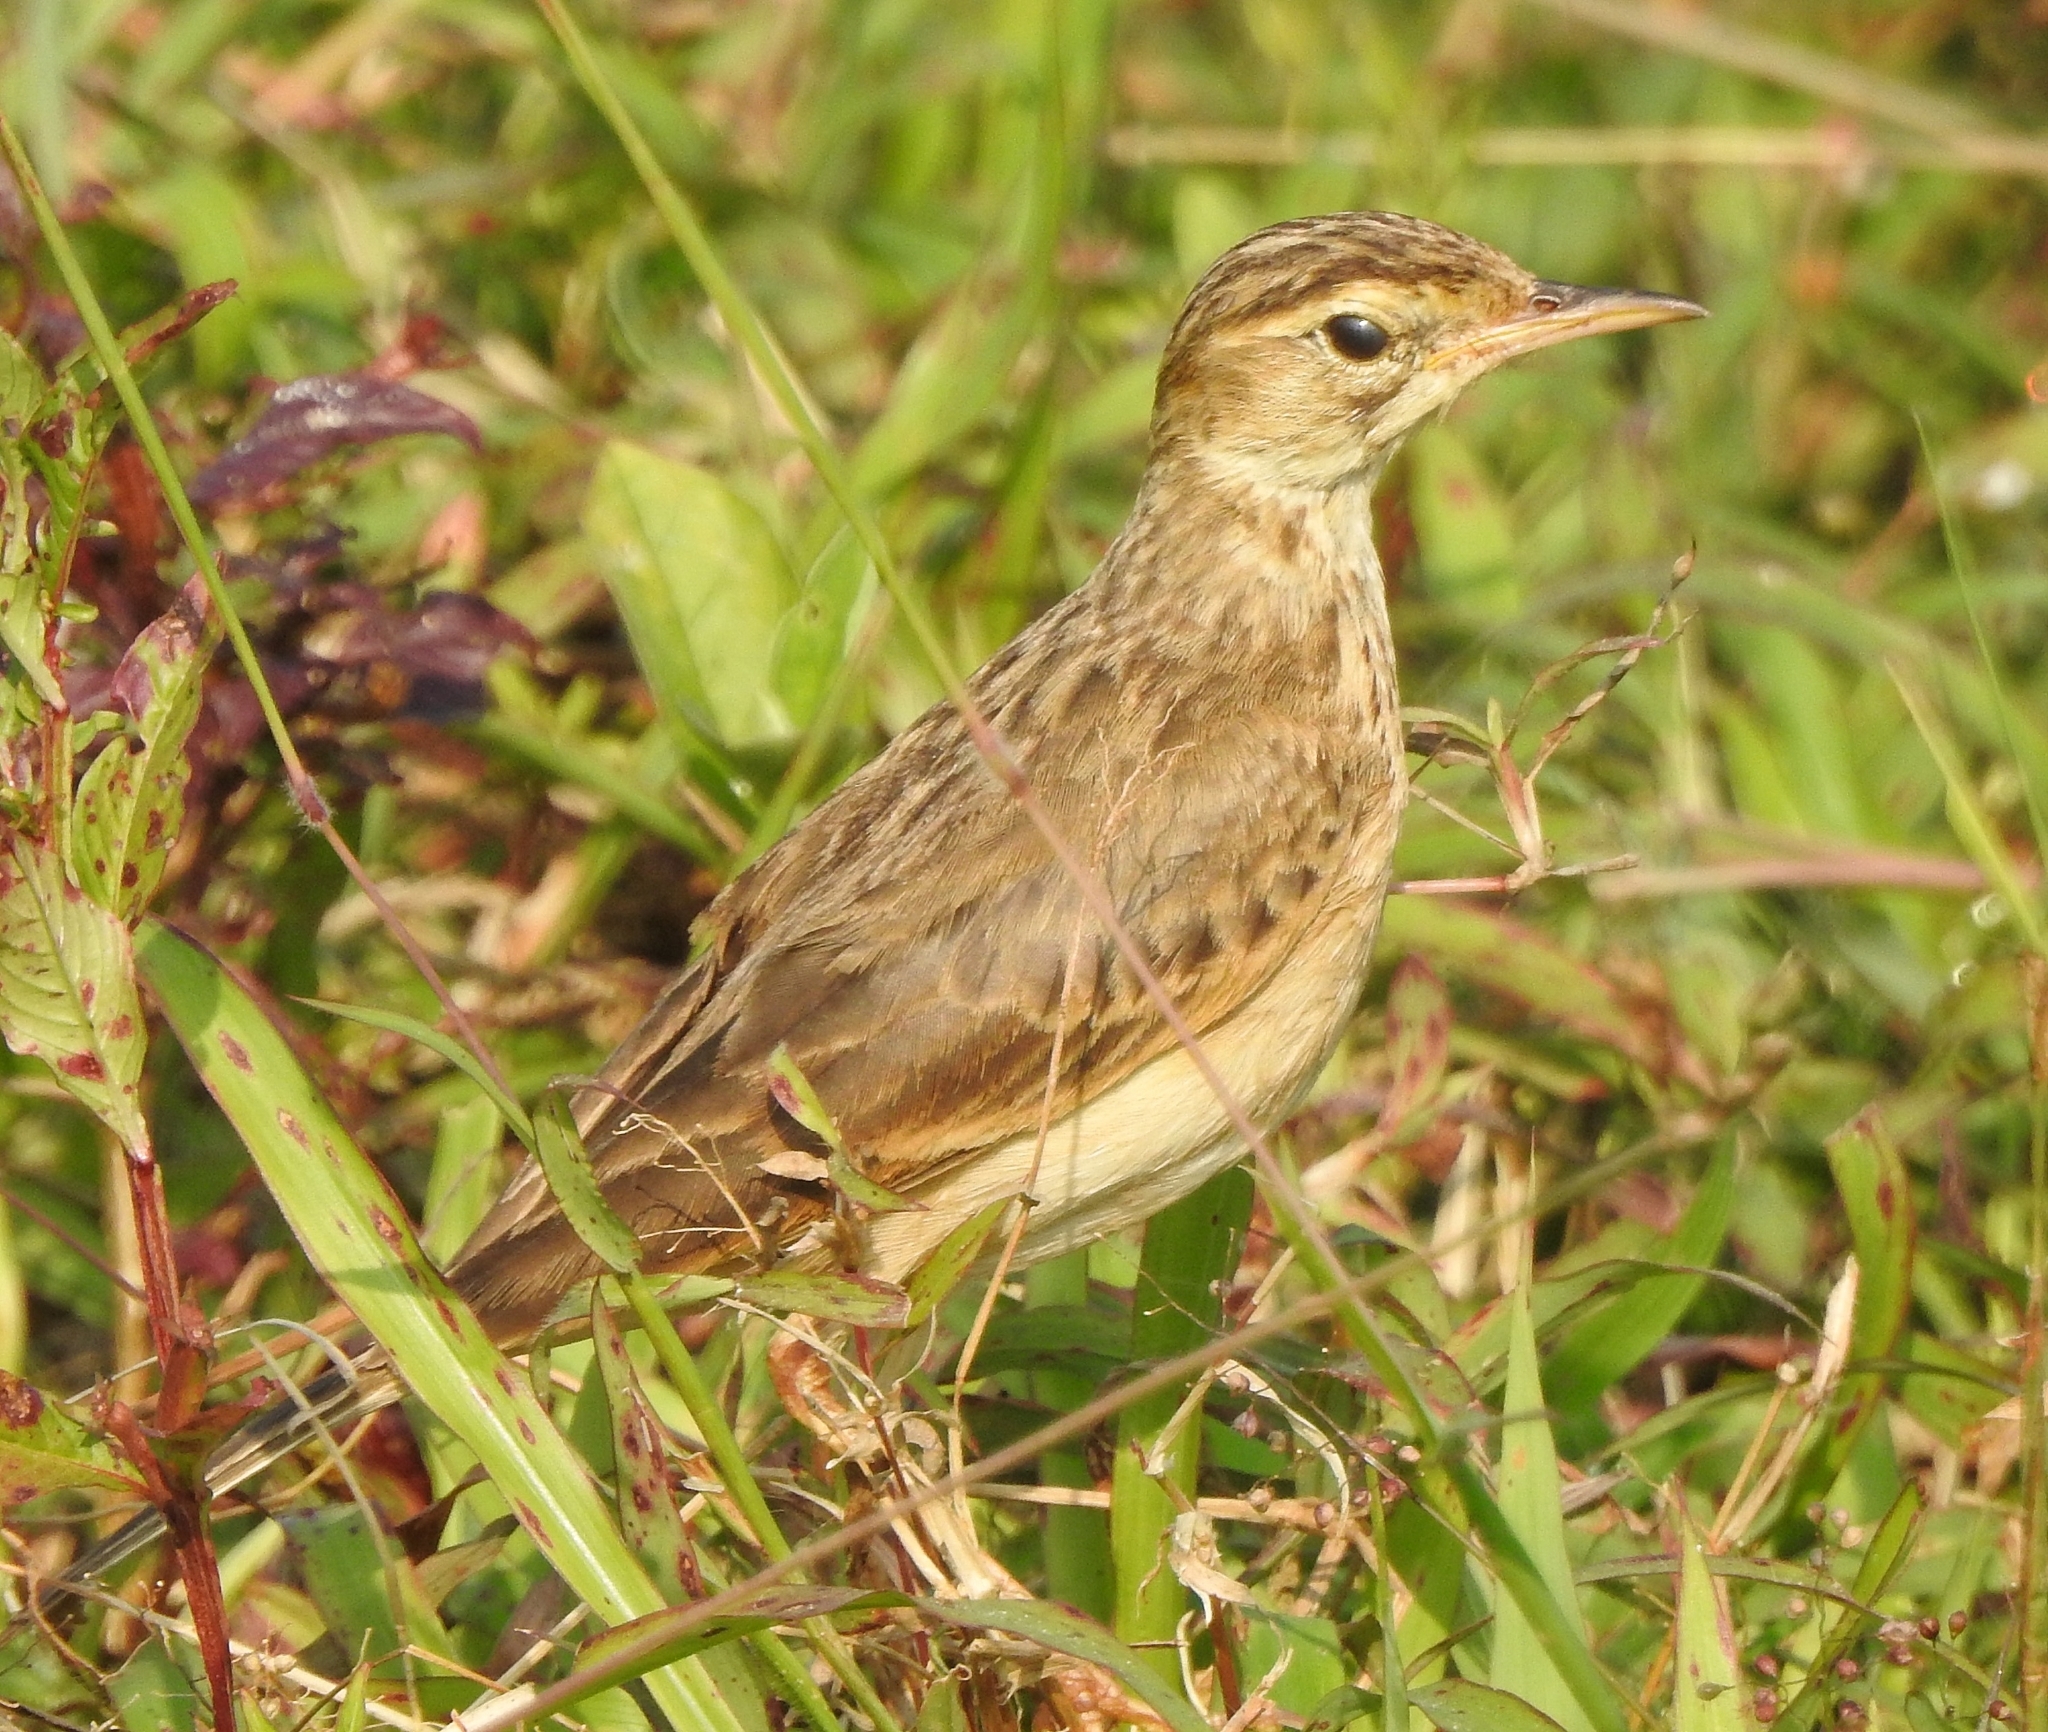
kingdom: Animalia
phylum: Chordata
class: Aves
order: Passeriformes
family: Motacillidae
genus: Anthus
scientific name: Anthus rufulus
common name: Paddyfield pipit
